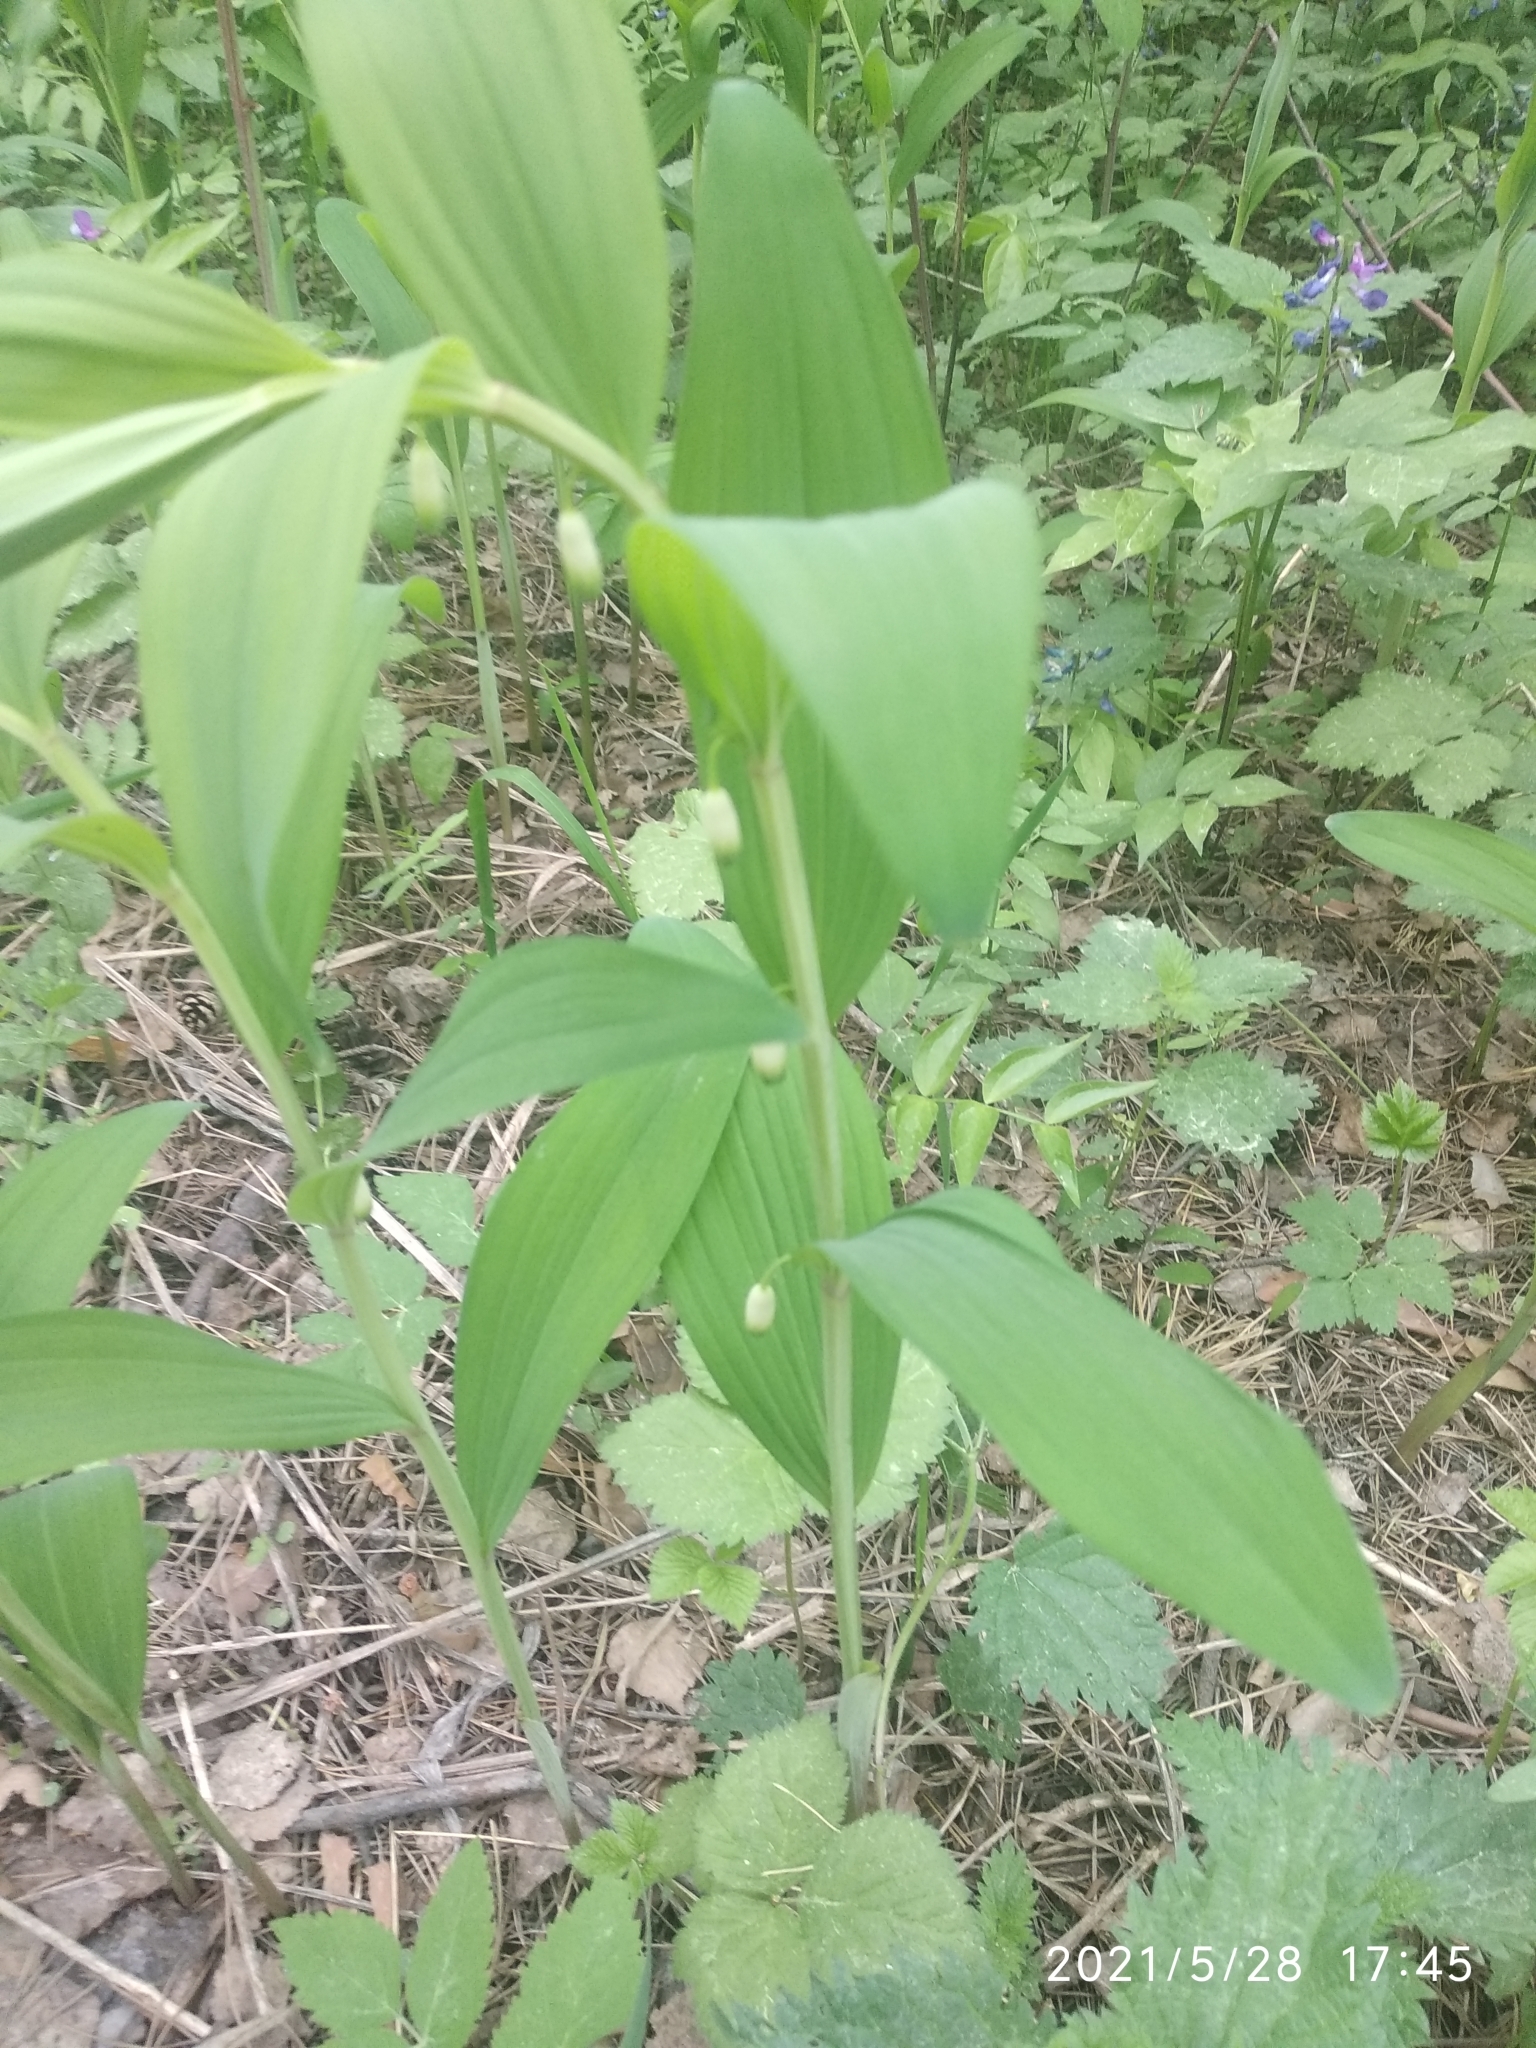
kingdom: Plantae
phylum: Tracheophyta
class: Liliopsida
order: Asparagales
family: Asparagaceae
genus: Polygonatum
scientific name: Polygonatum odoratum
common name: Angular solomon's-seal
